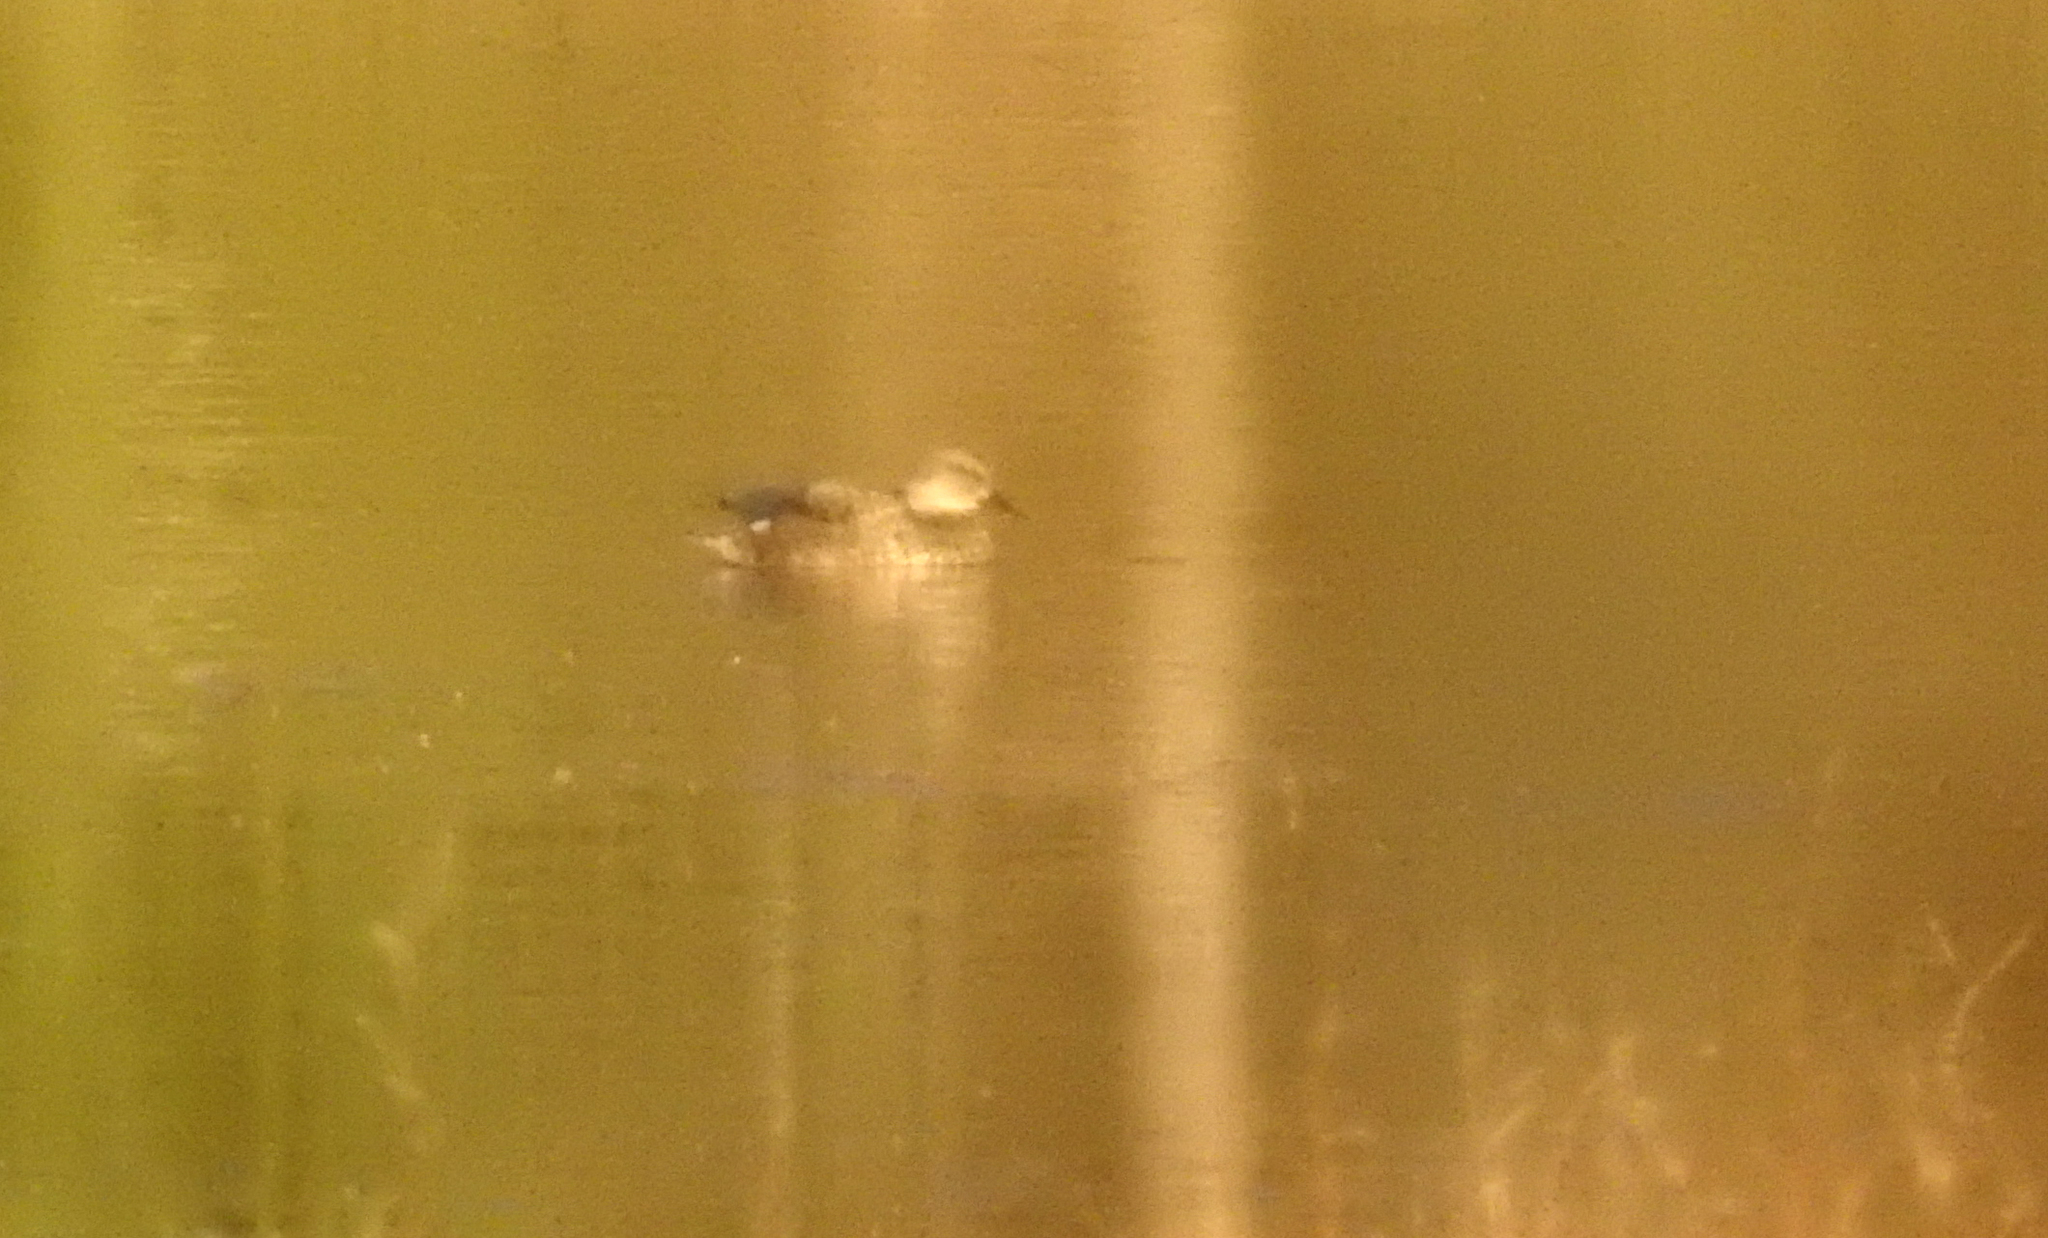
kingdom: Animalia
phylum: Chordata
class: Aves
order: Anseriformes
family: Anatidae
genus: Mareca
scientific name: Mareca strepera
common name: Gadwall
